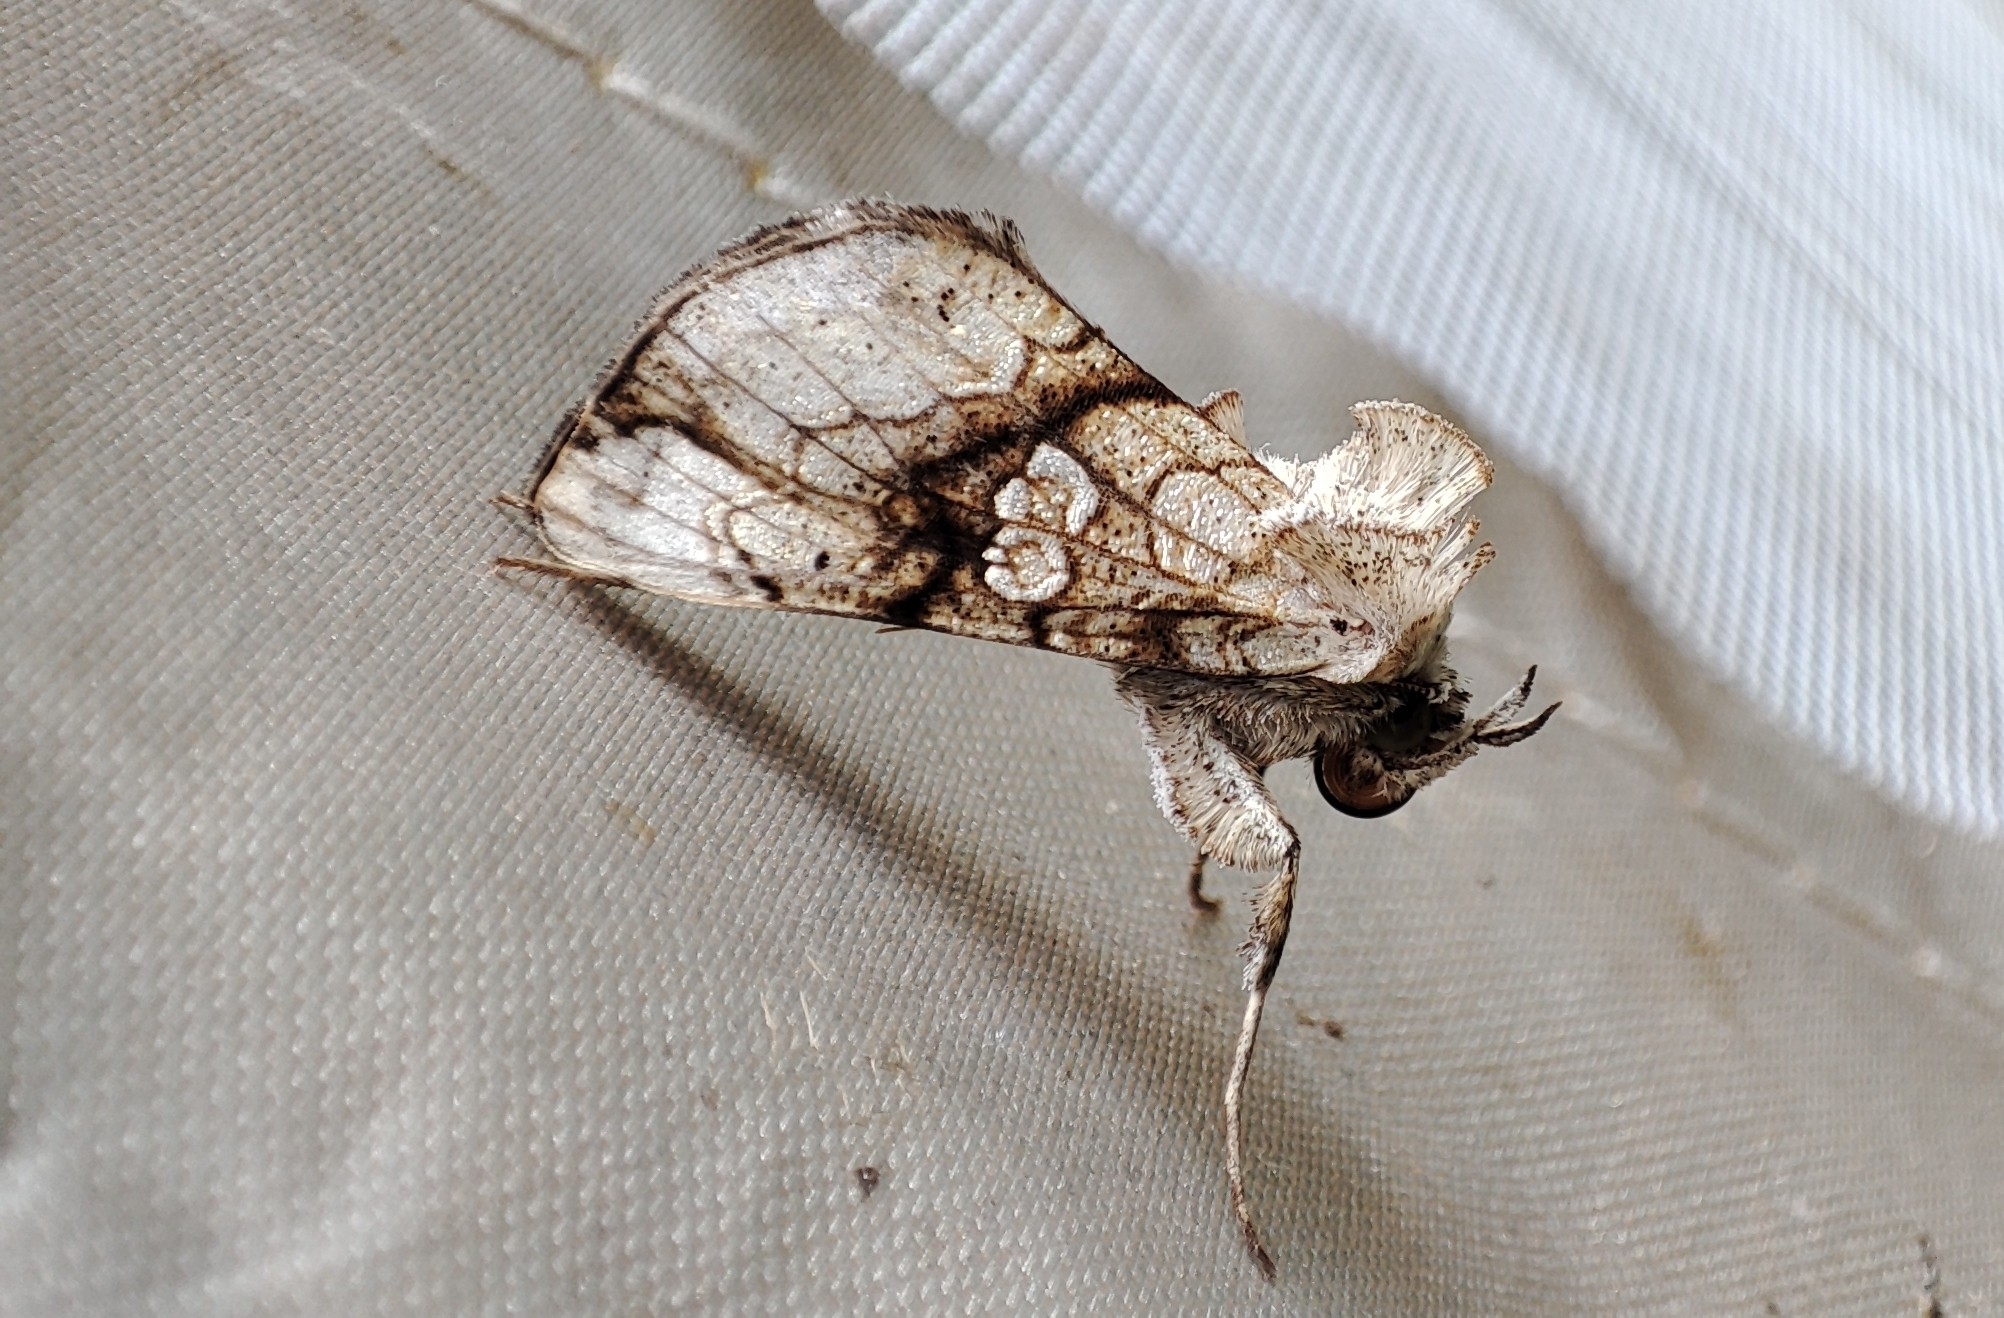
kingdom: Animalia
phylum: Arthropoda
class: Insecta
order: Lepidoptera
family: Noctuidae
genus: Polychrysia
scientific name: Polychrysia esmeralda
